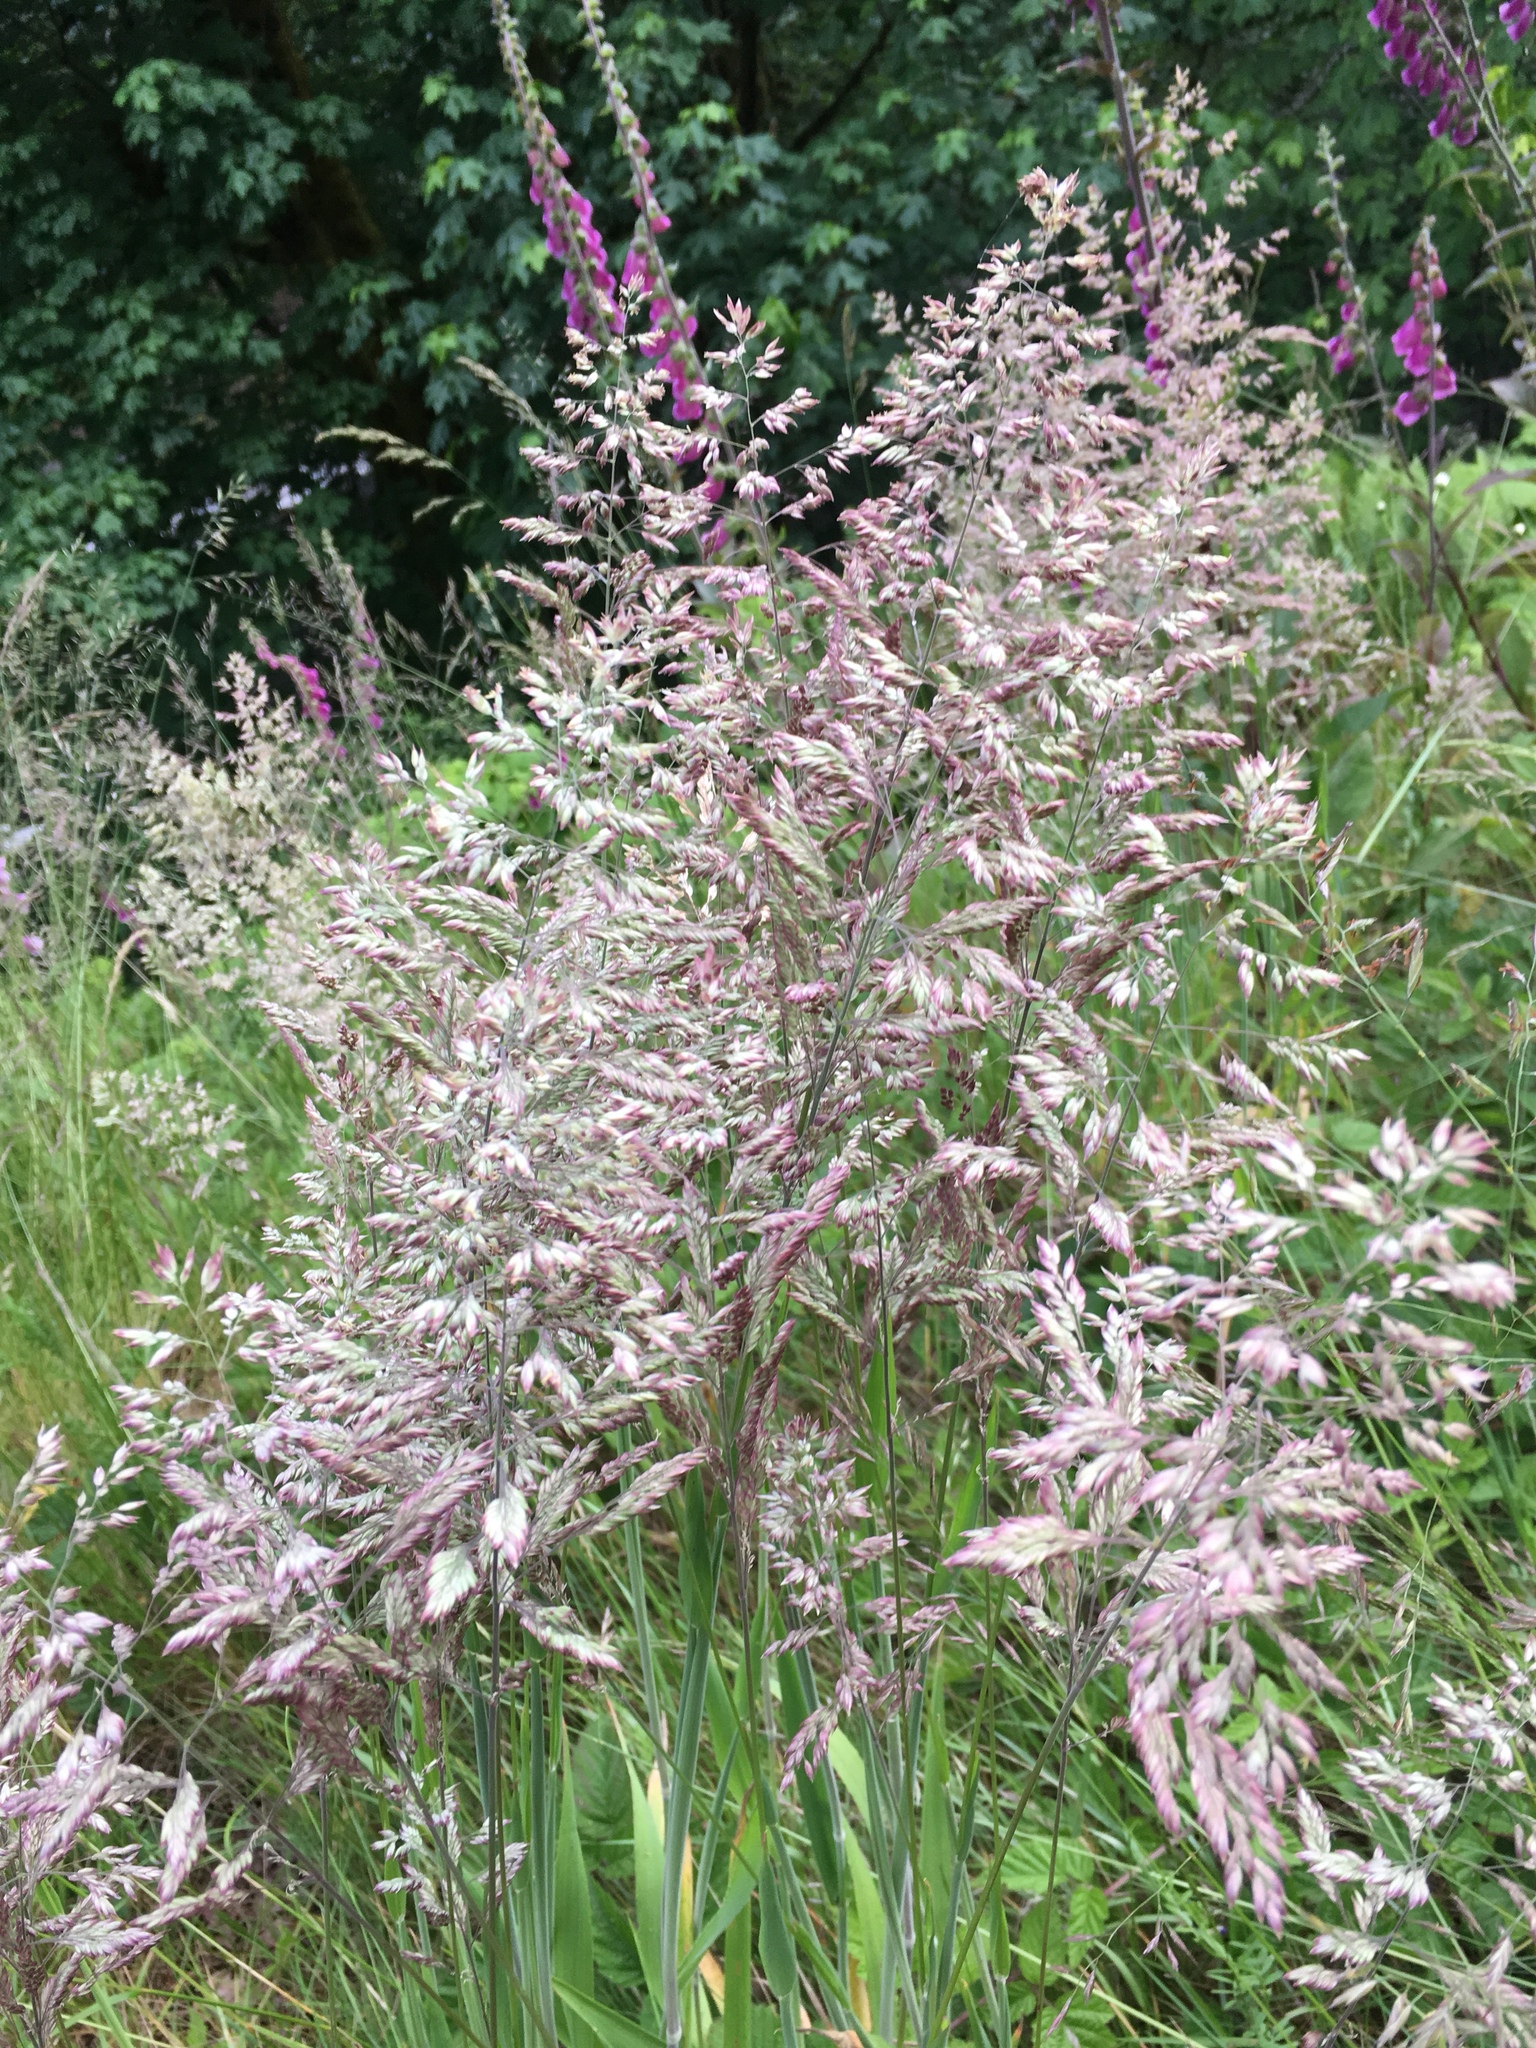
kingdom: Plantae
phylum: Tracheophyta
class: Liliopsida
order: Poales
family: Poaceae
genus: Holcus
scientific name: Holcus lanatus
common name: Yorkshire-fog
